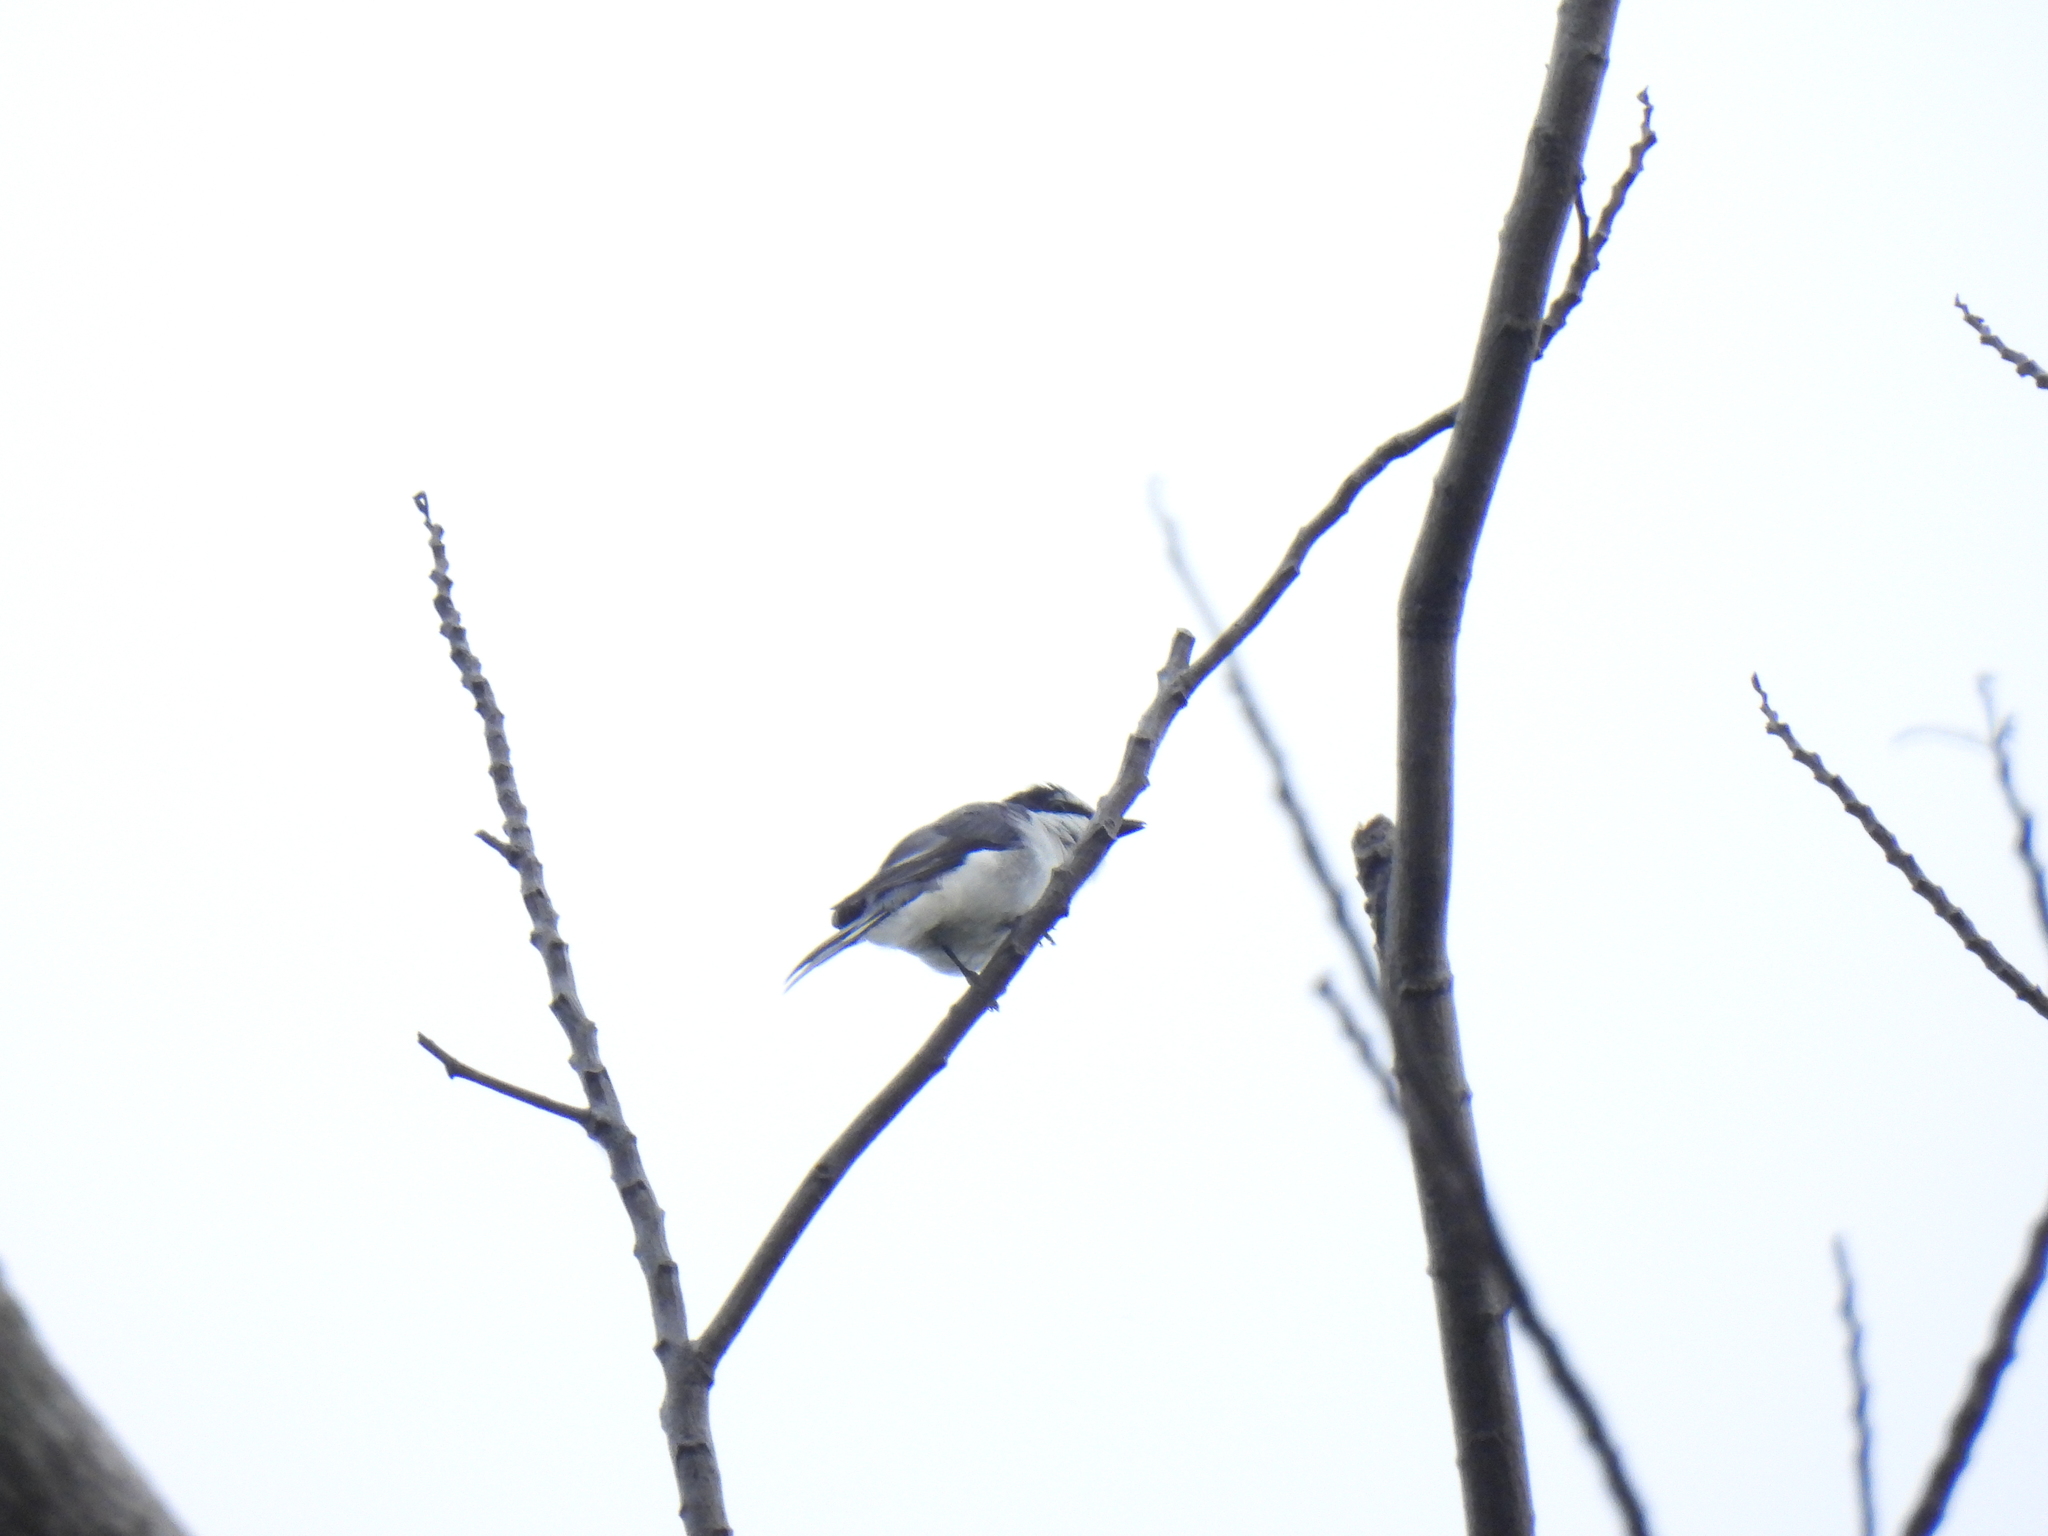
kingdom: Animalia
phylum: Chordata
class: Aves
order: Passeriformes
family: Campephagidae
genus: Pericrocotus
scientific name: Pericrocotus divaricatus
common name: Ashy minivet
